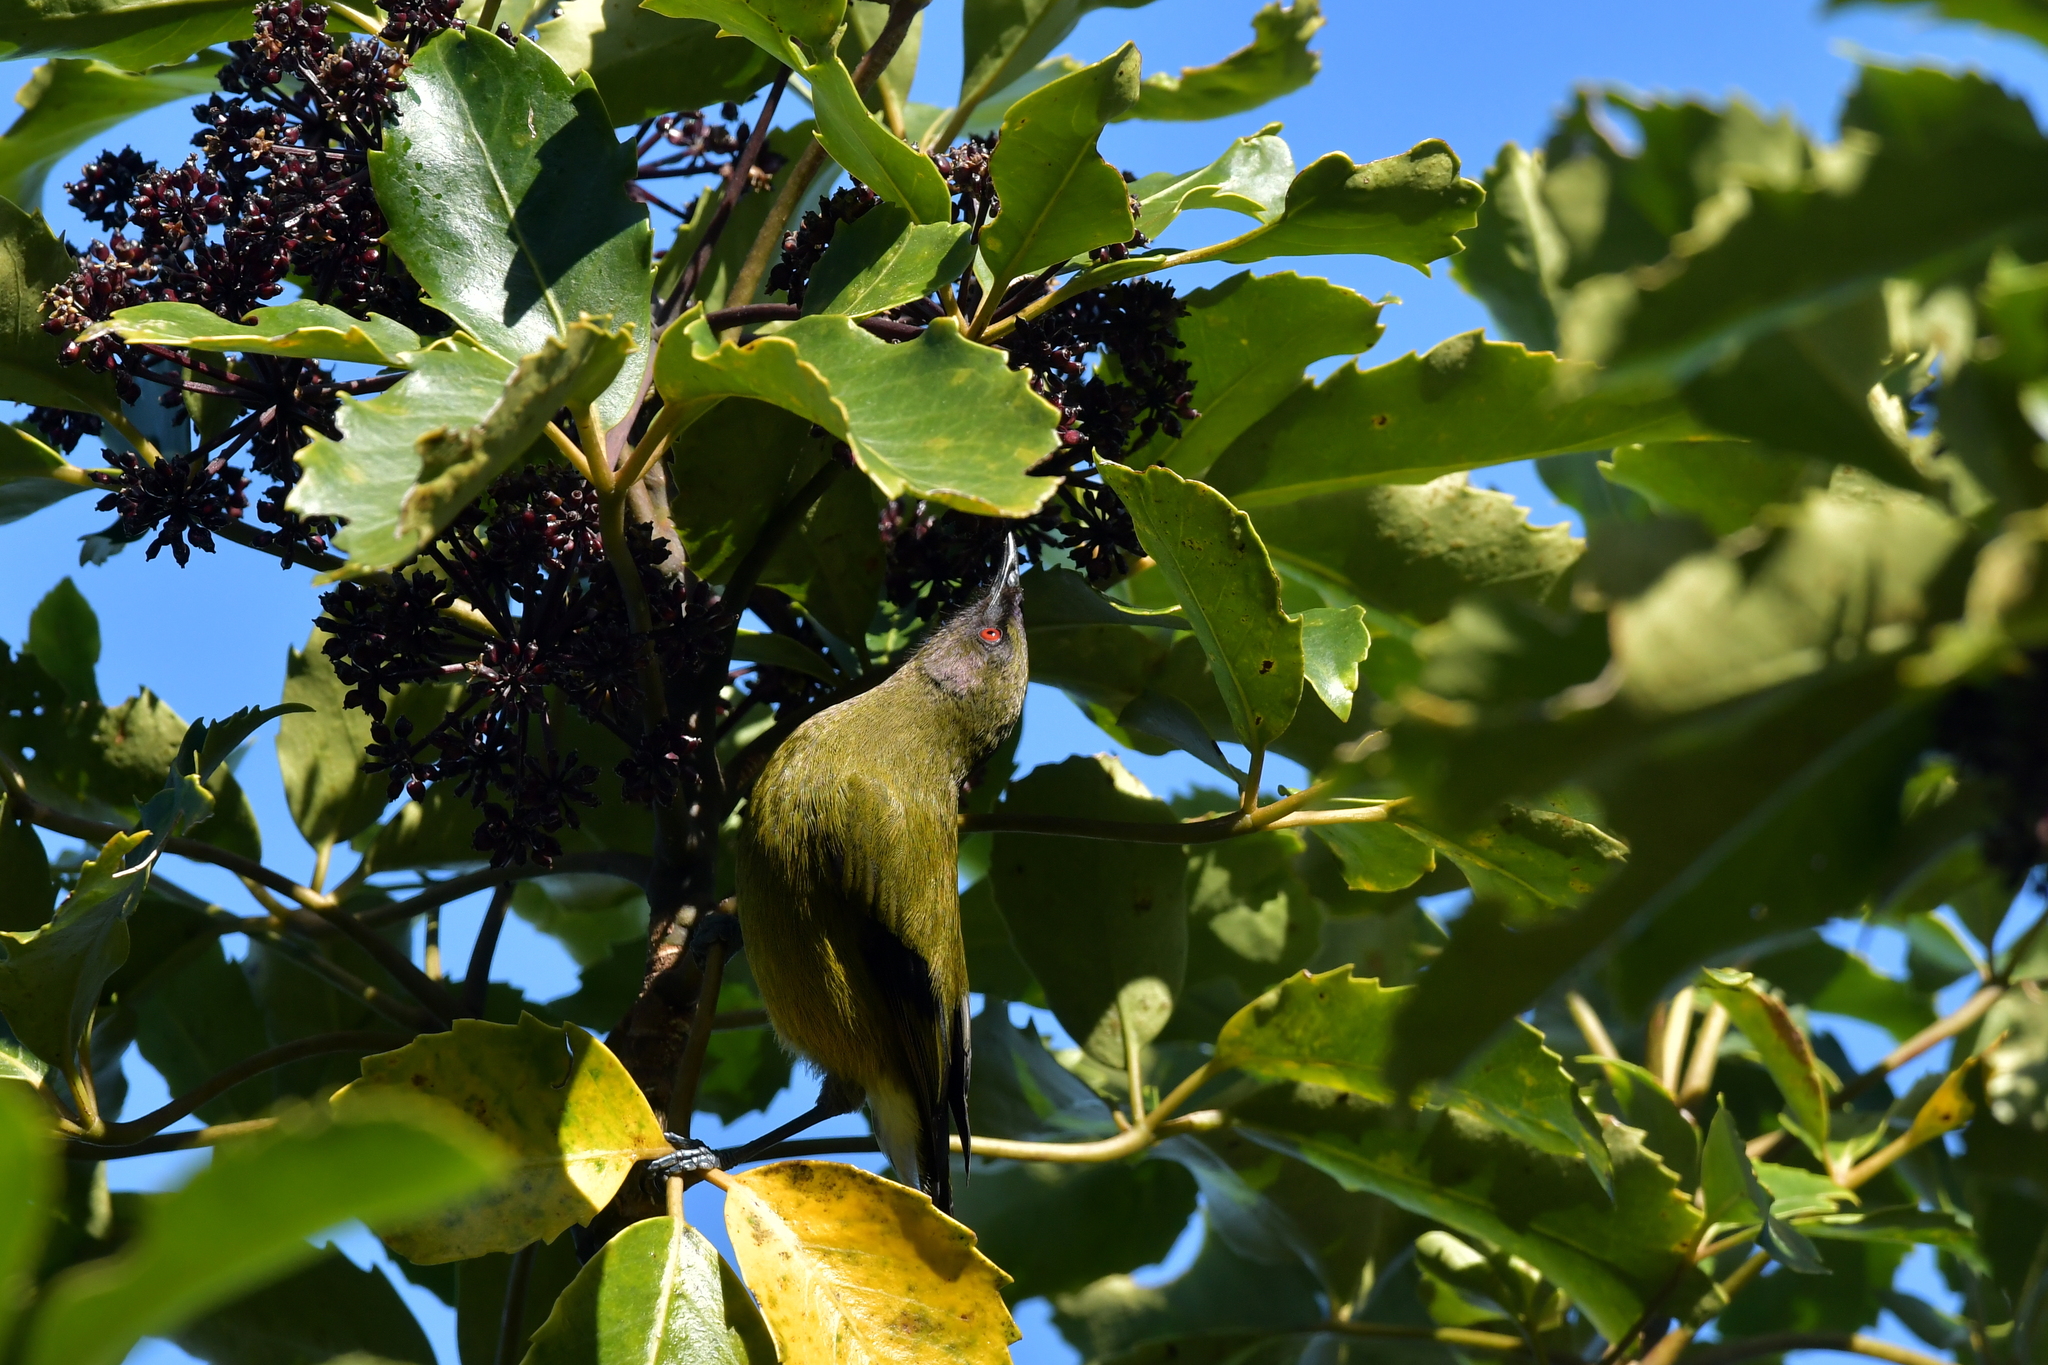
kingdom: Animalia
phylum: Chordata
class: Aves
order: Passeriformes
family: Meliphagidae
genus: Anthornis
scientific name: Anthornis melanura
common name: New zealand bellbird
